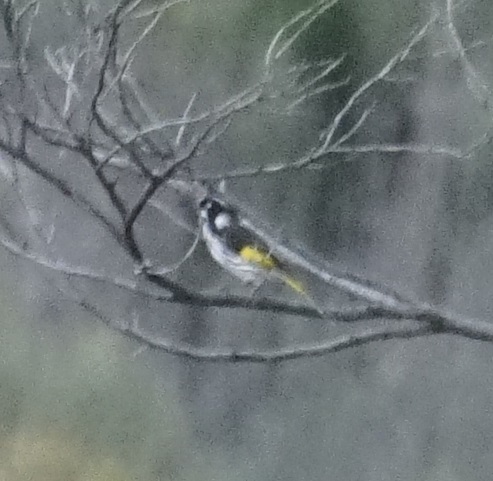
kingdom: Animalia
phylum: Chordata
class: Aves
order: Passeriformes
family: Meliphagidae
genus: Phylidonyris
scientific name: Phylidonyris novaehollandiae
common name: New holland honeyeater
